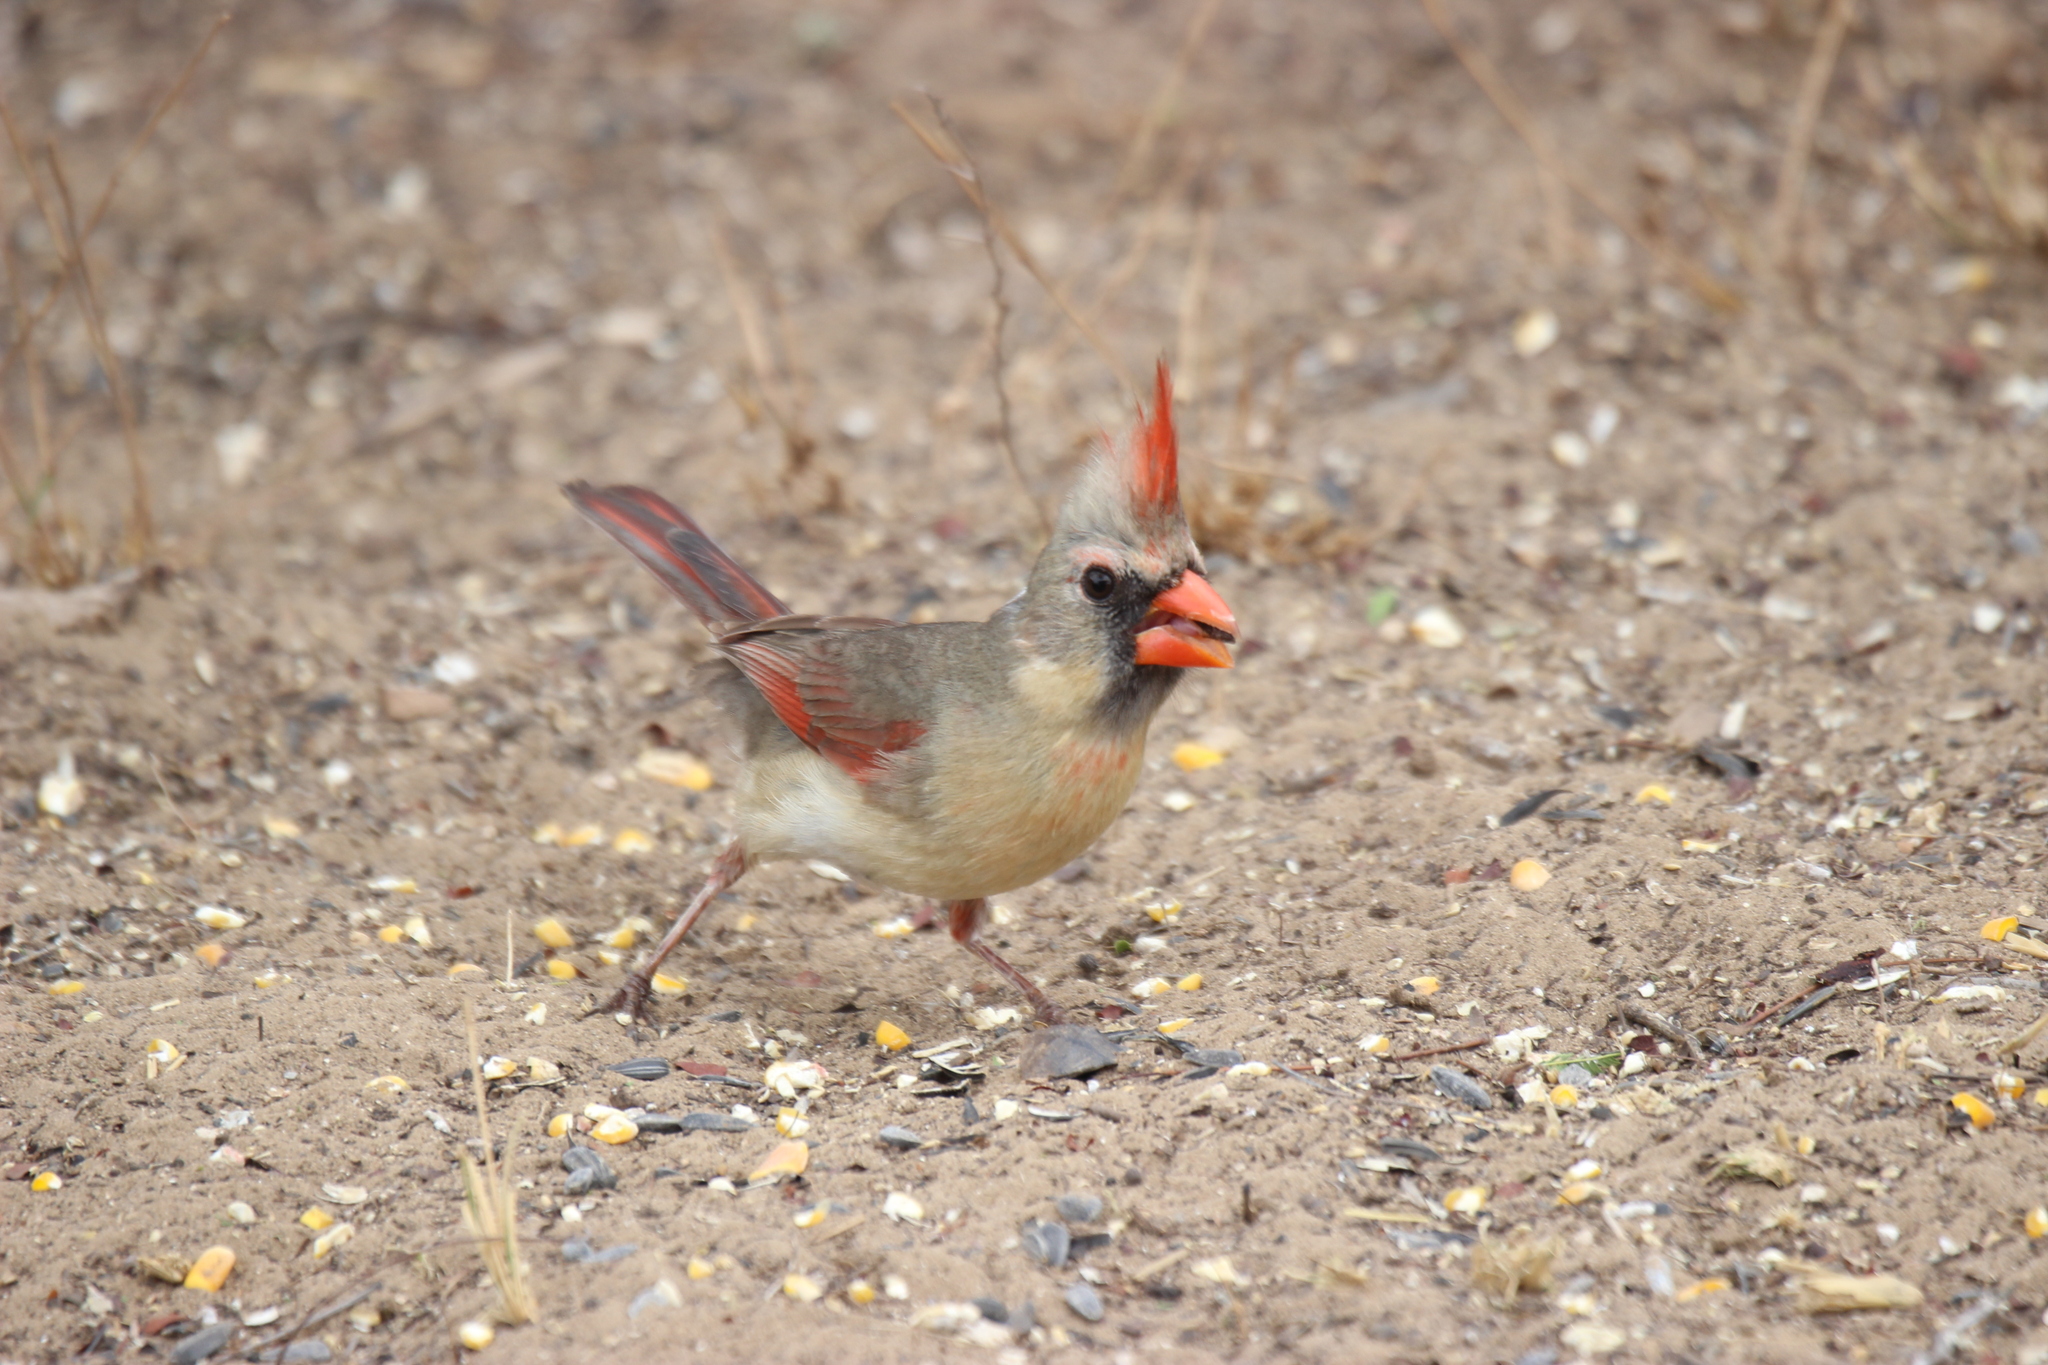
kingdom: Animalia
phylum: Chordata
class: Aves
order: Passeriformes
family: Cardinalidae
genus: Cardinalis
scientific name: Cardinalis cardinalis
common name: Northern cardinal
